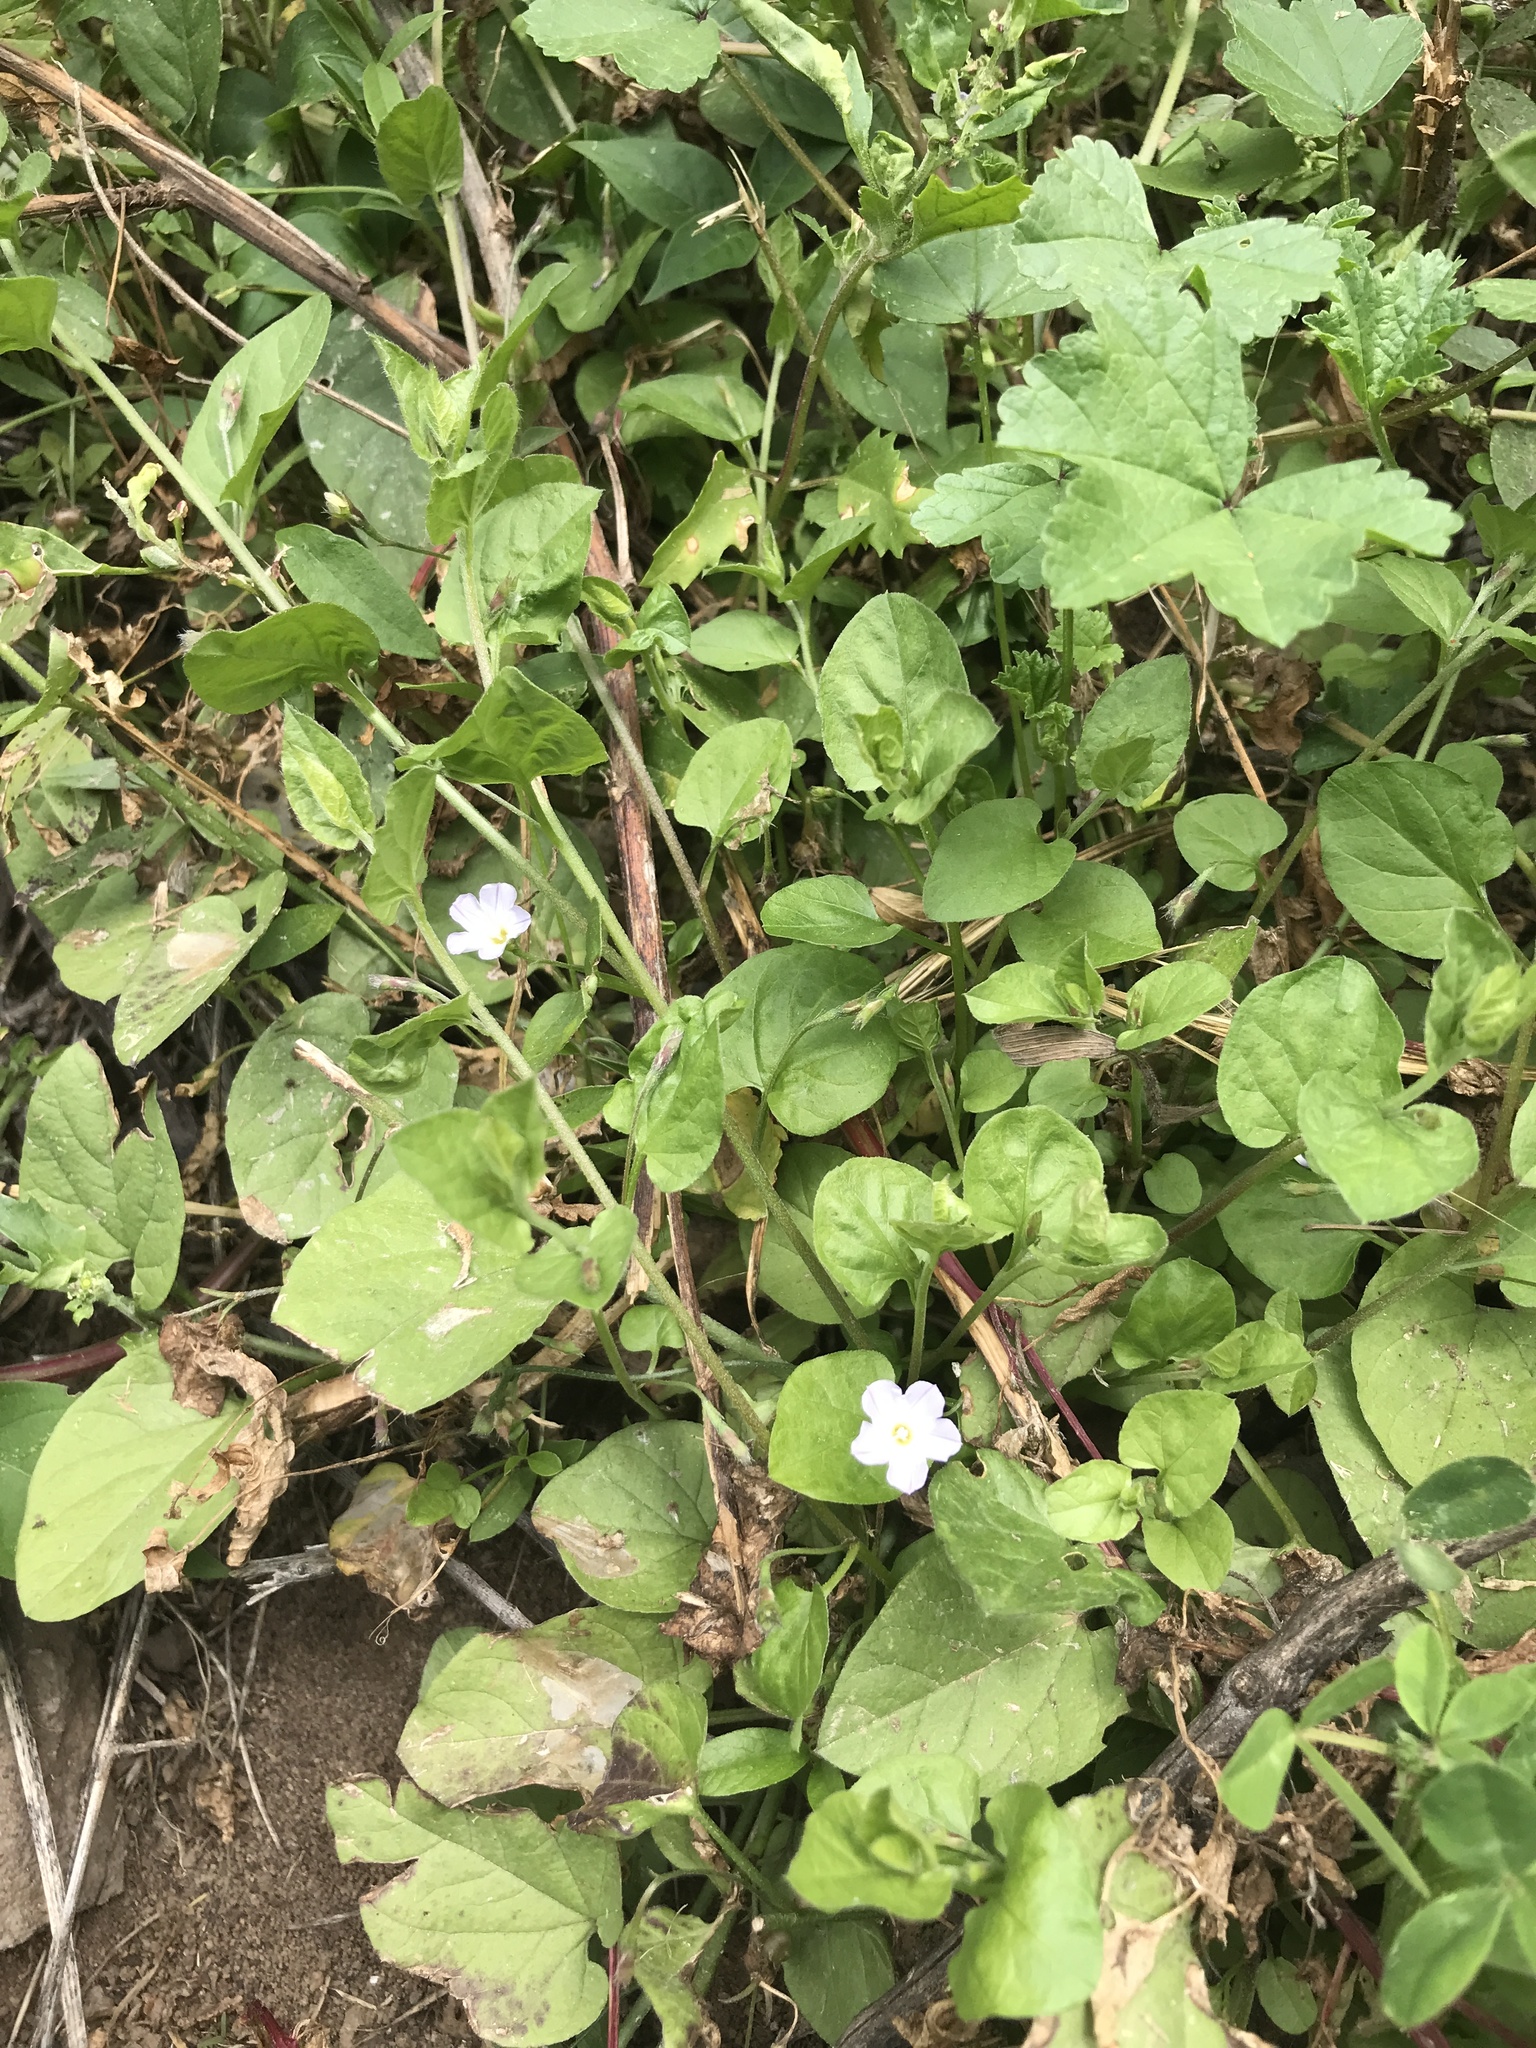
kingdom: Plantae
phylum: Tracheophyta
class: Magnoliopsida
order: Solanales
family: Convolvulaceae
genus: Convolvulus
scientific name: Convolvulus siculus
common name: Small blue-convolvulus
